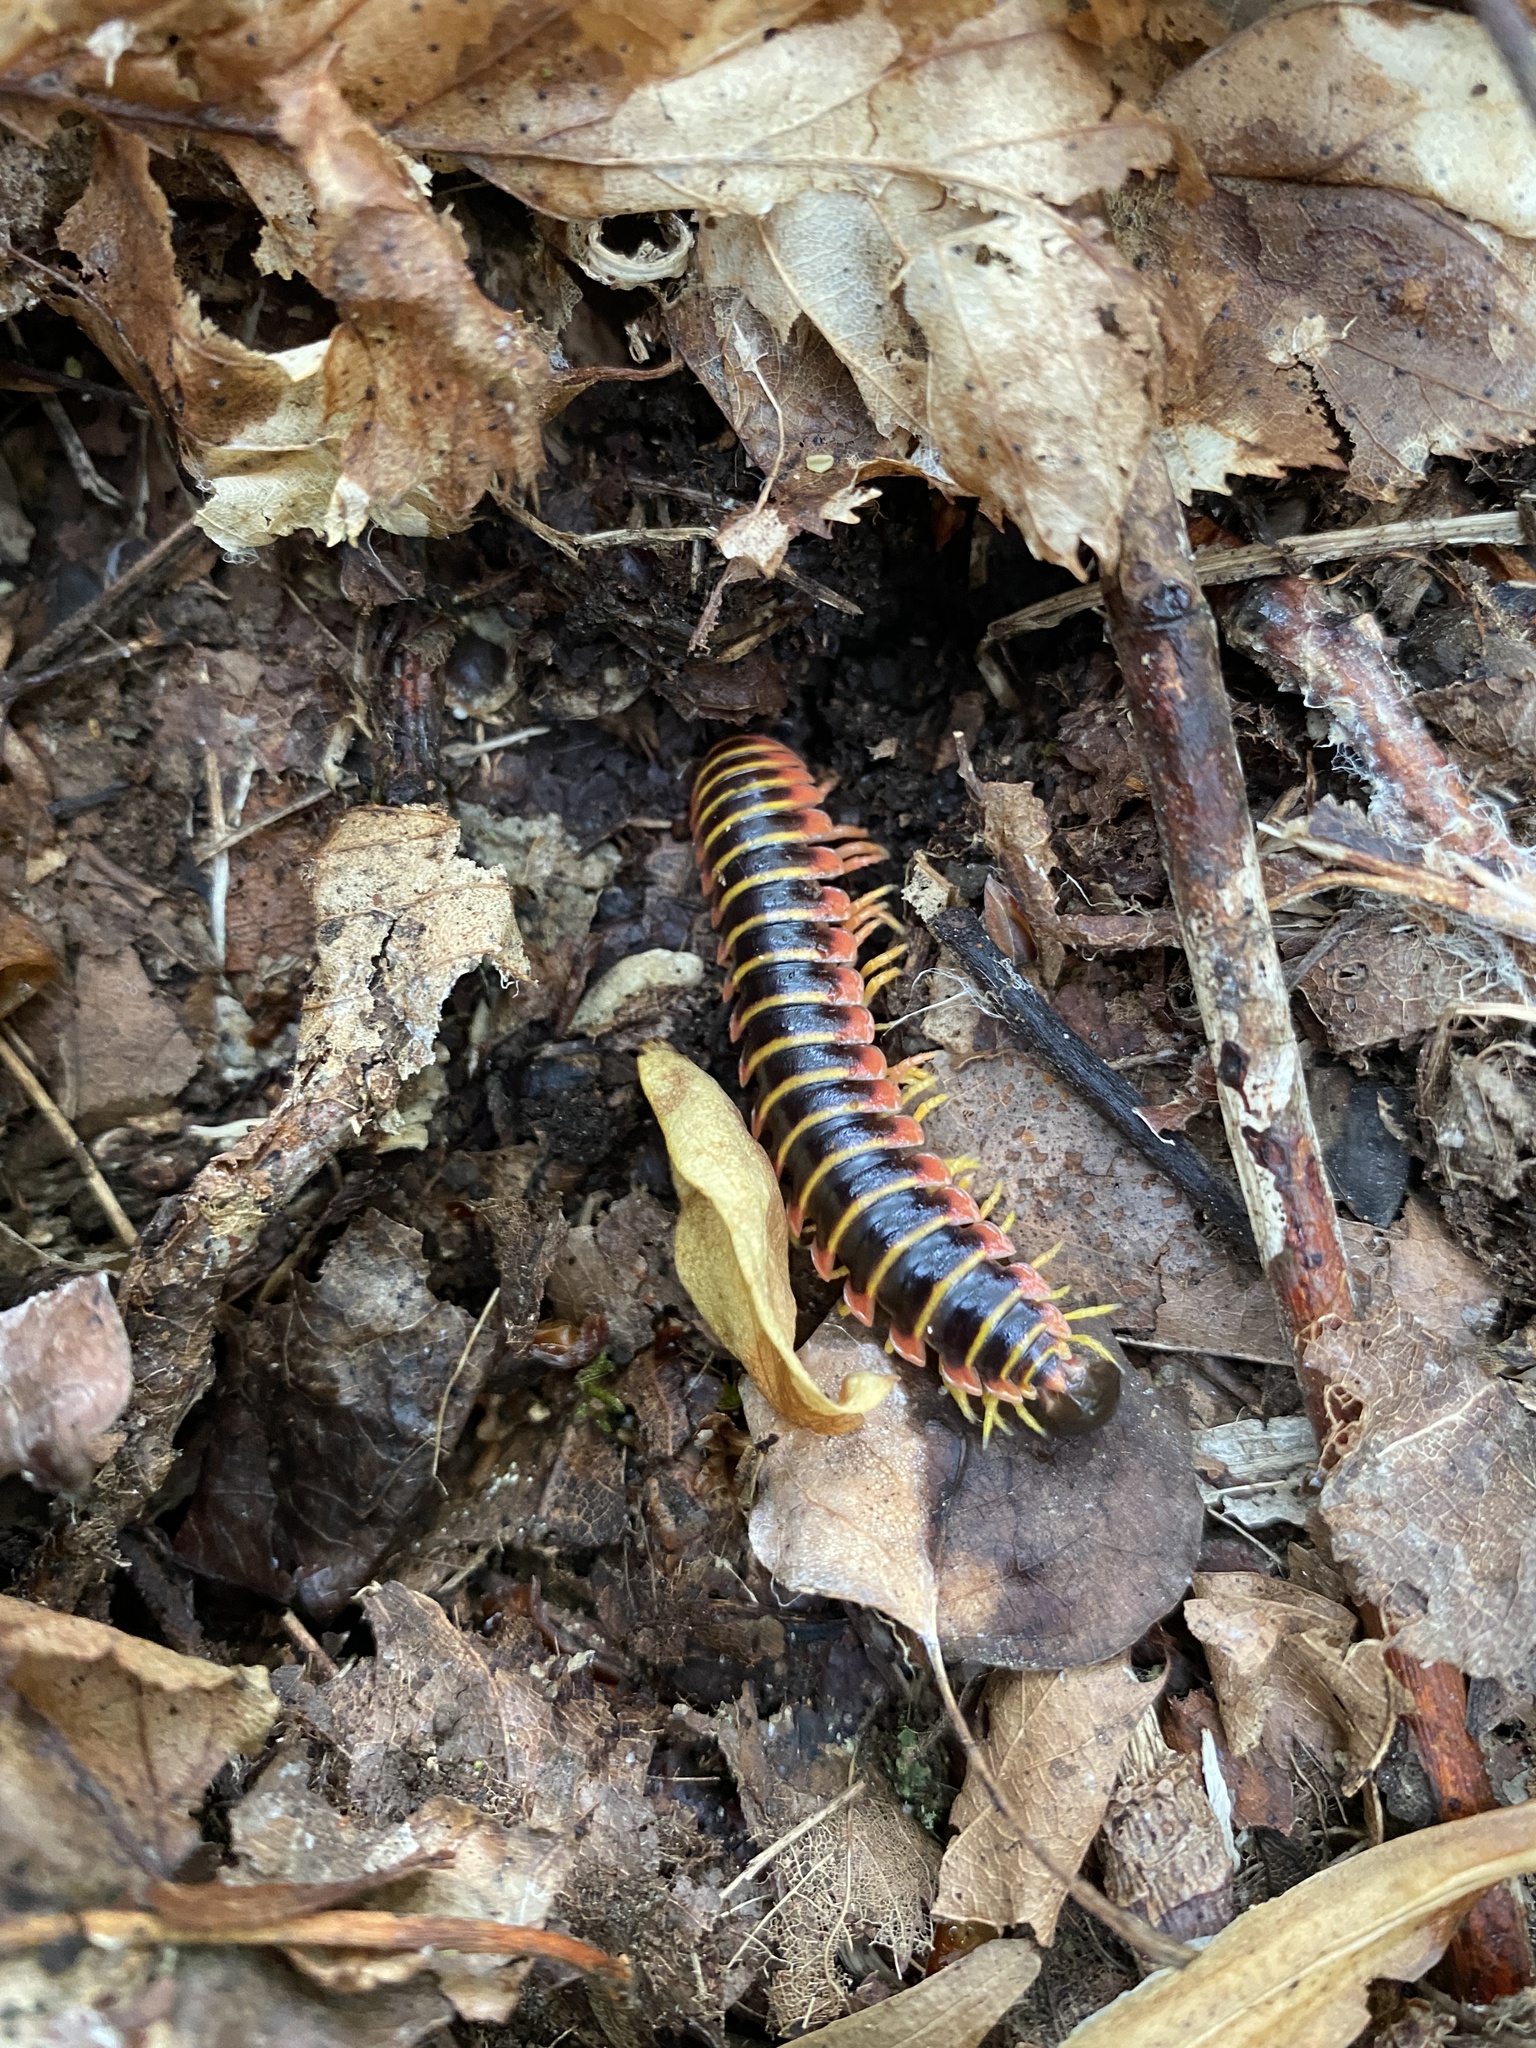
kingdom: Animalia
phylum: Arthropoda
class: Diplopoda
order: Polydesmida
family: Xystodesmidae
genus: Apheloria
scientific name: Apheloria virginiensis
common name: Black-and-gold flat millipede
